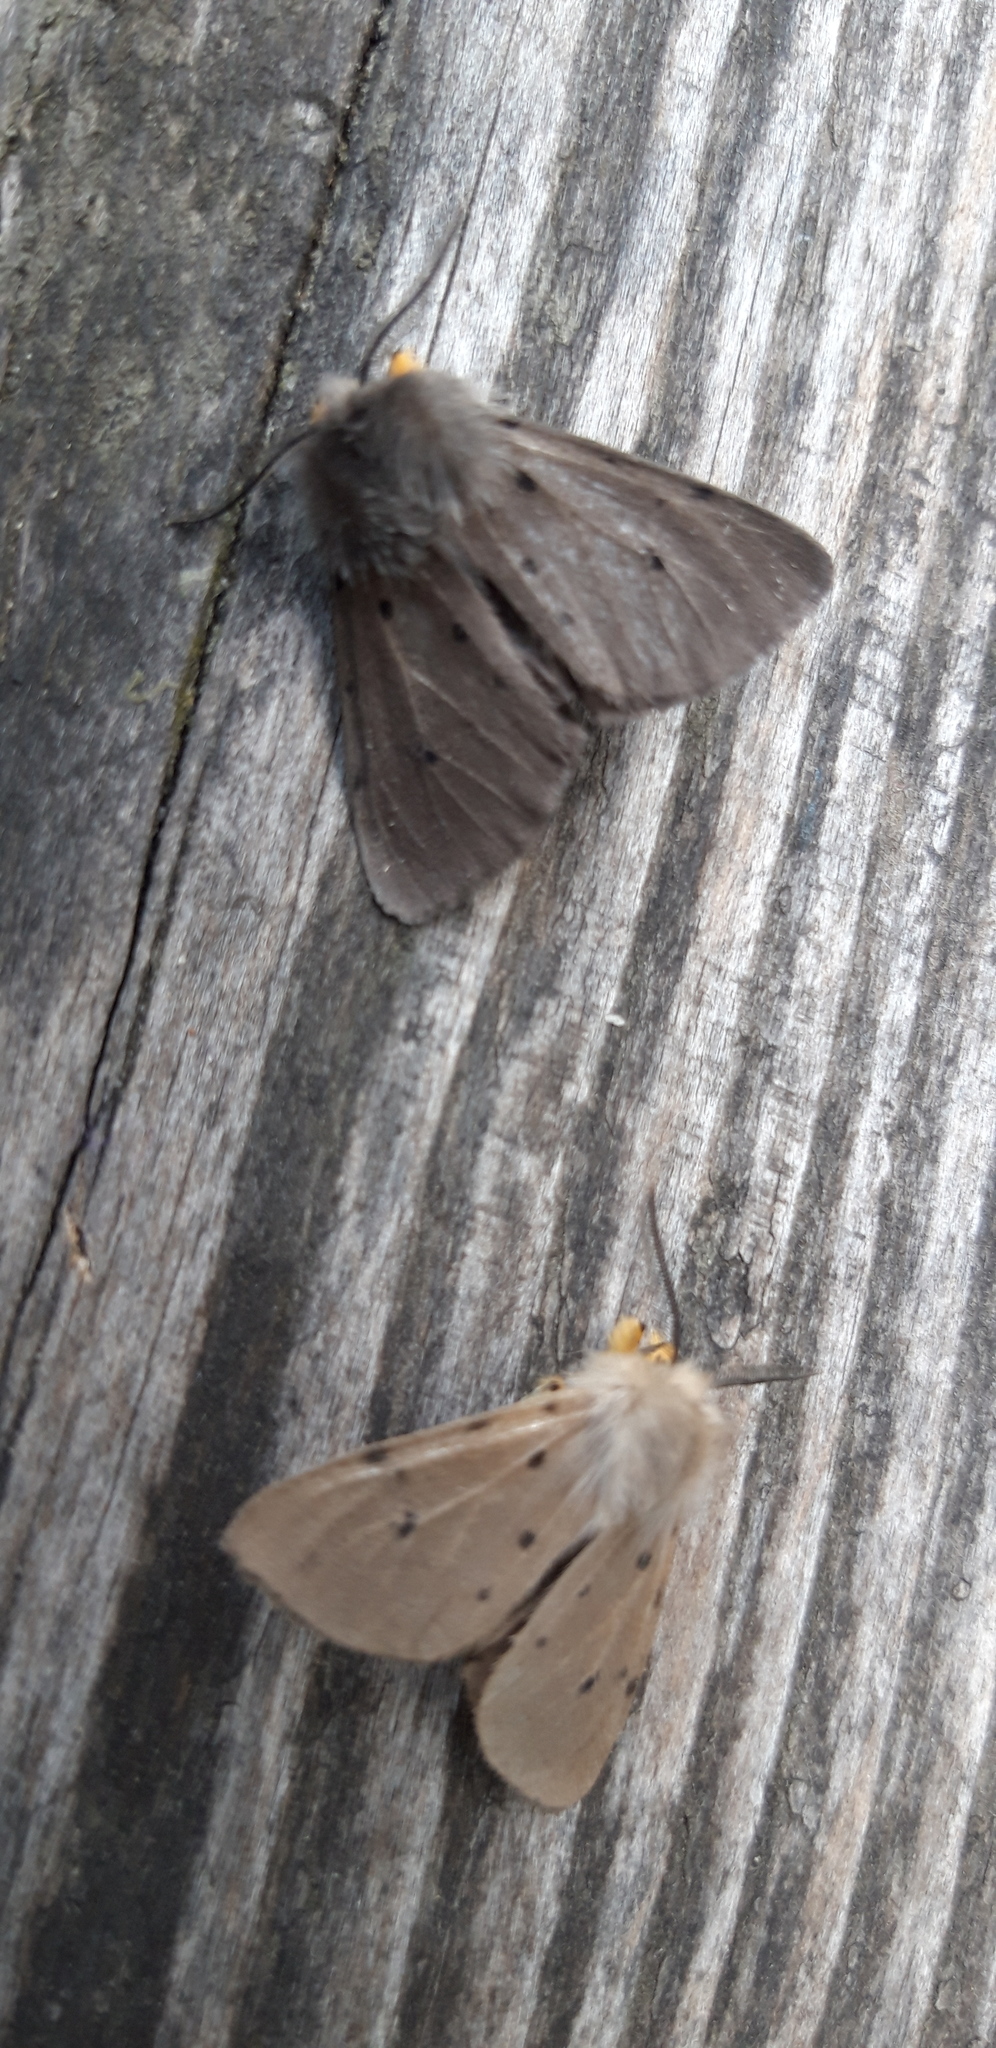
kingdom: Animalia
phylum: Arthropoda
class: Insecta
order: Lepidoptera
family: Erebidae
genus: Diaphora
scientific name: Diaphora mendica
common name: Muslin moth
